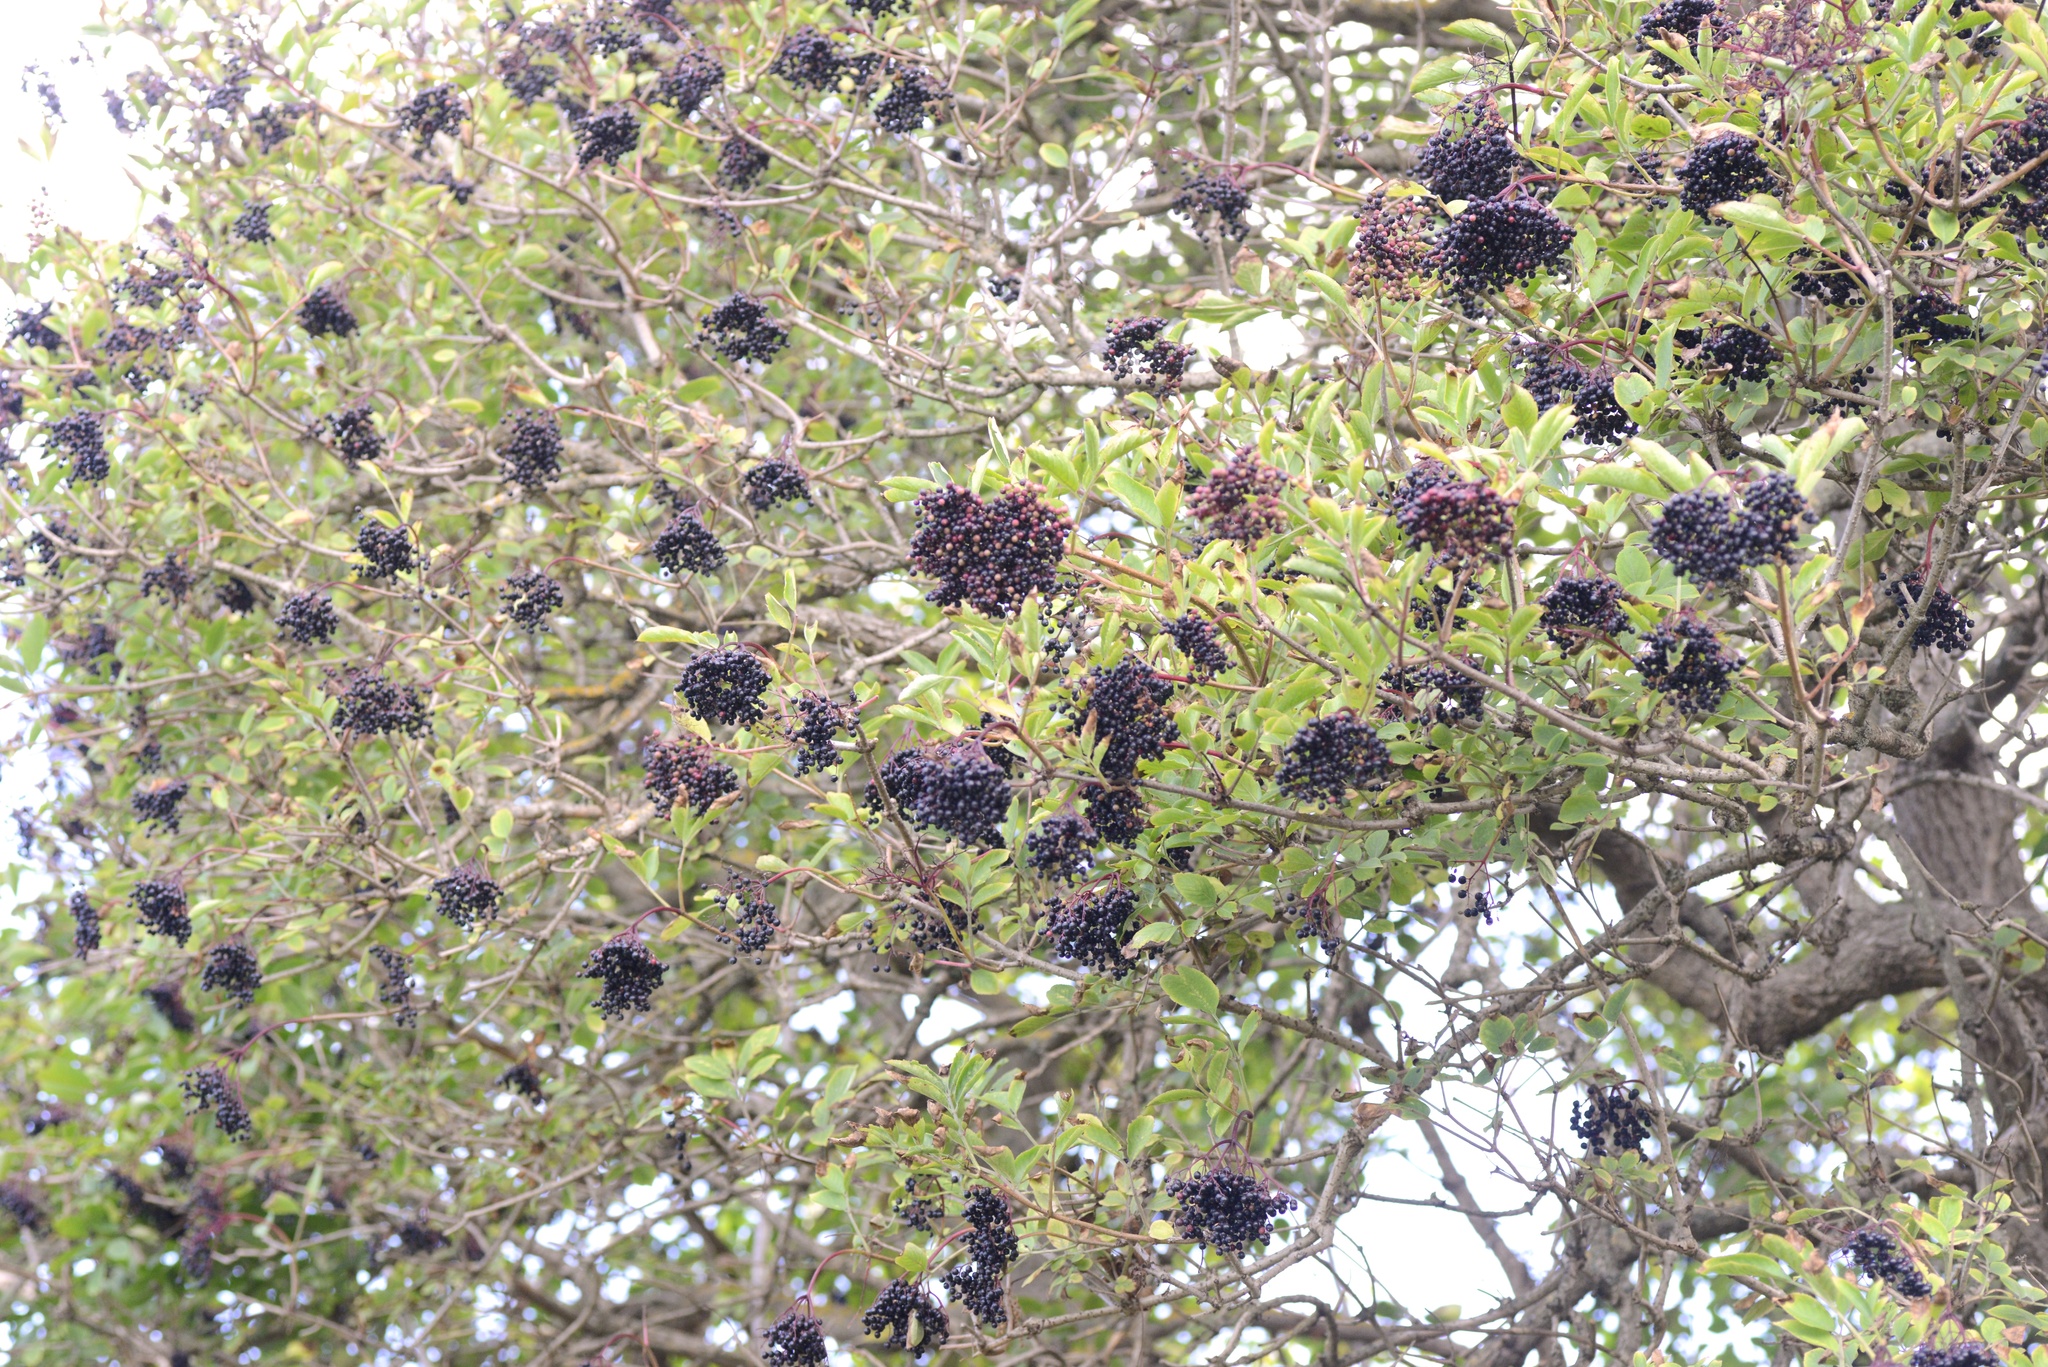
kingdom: Plantae
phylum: Tracheophyta
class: Magnoliopsida
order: Dipsacales
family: Viburnaceae
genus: Sambucus
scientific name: Sambucus nigra
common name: Elder
